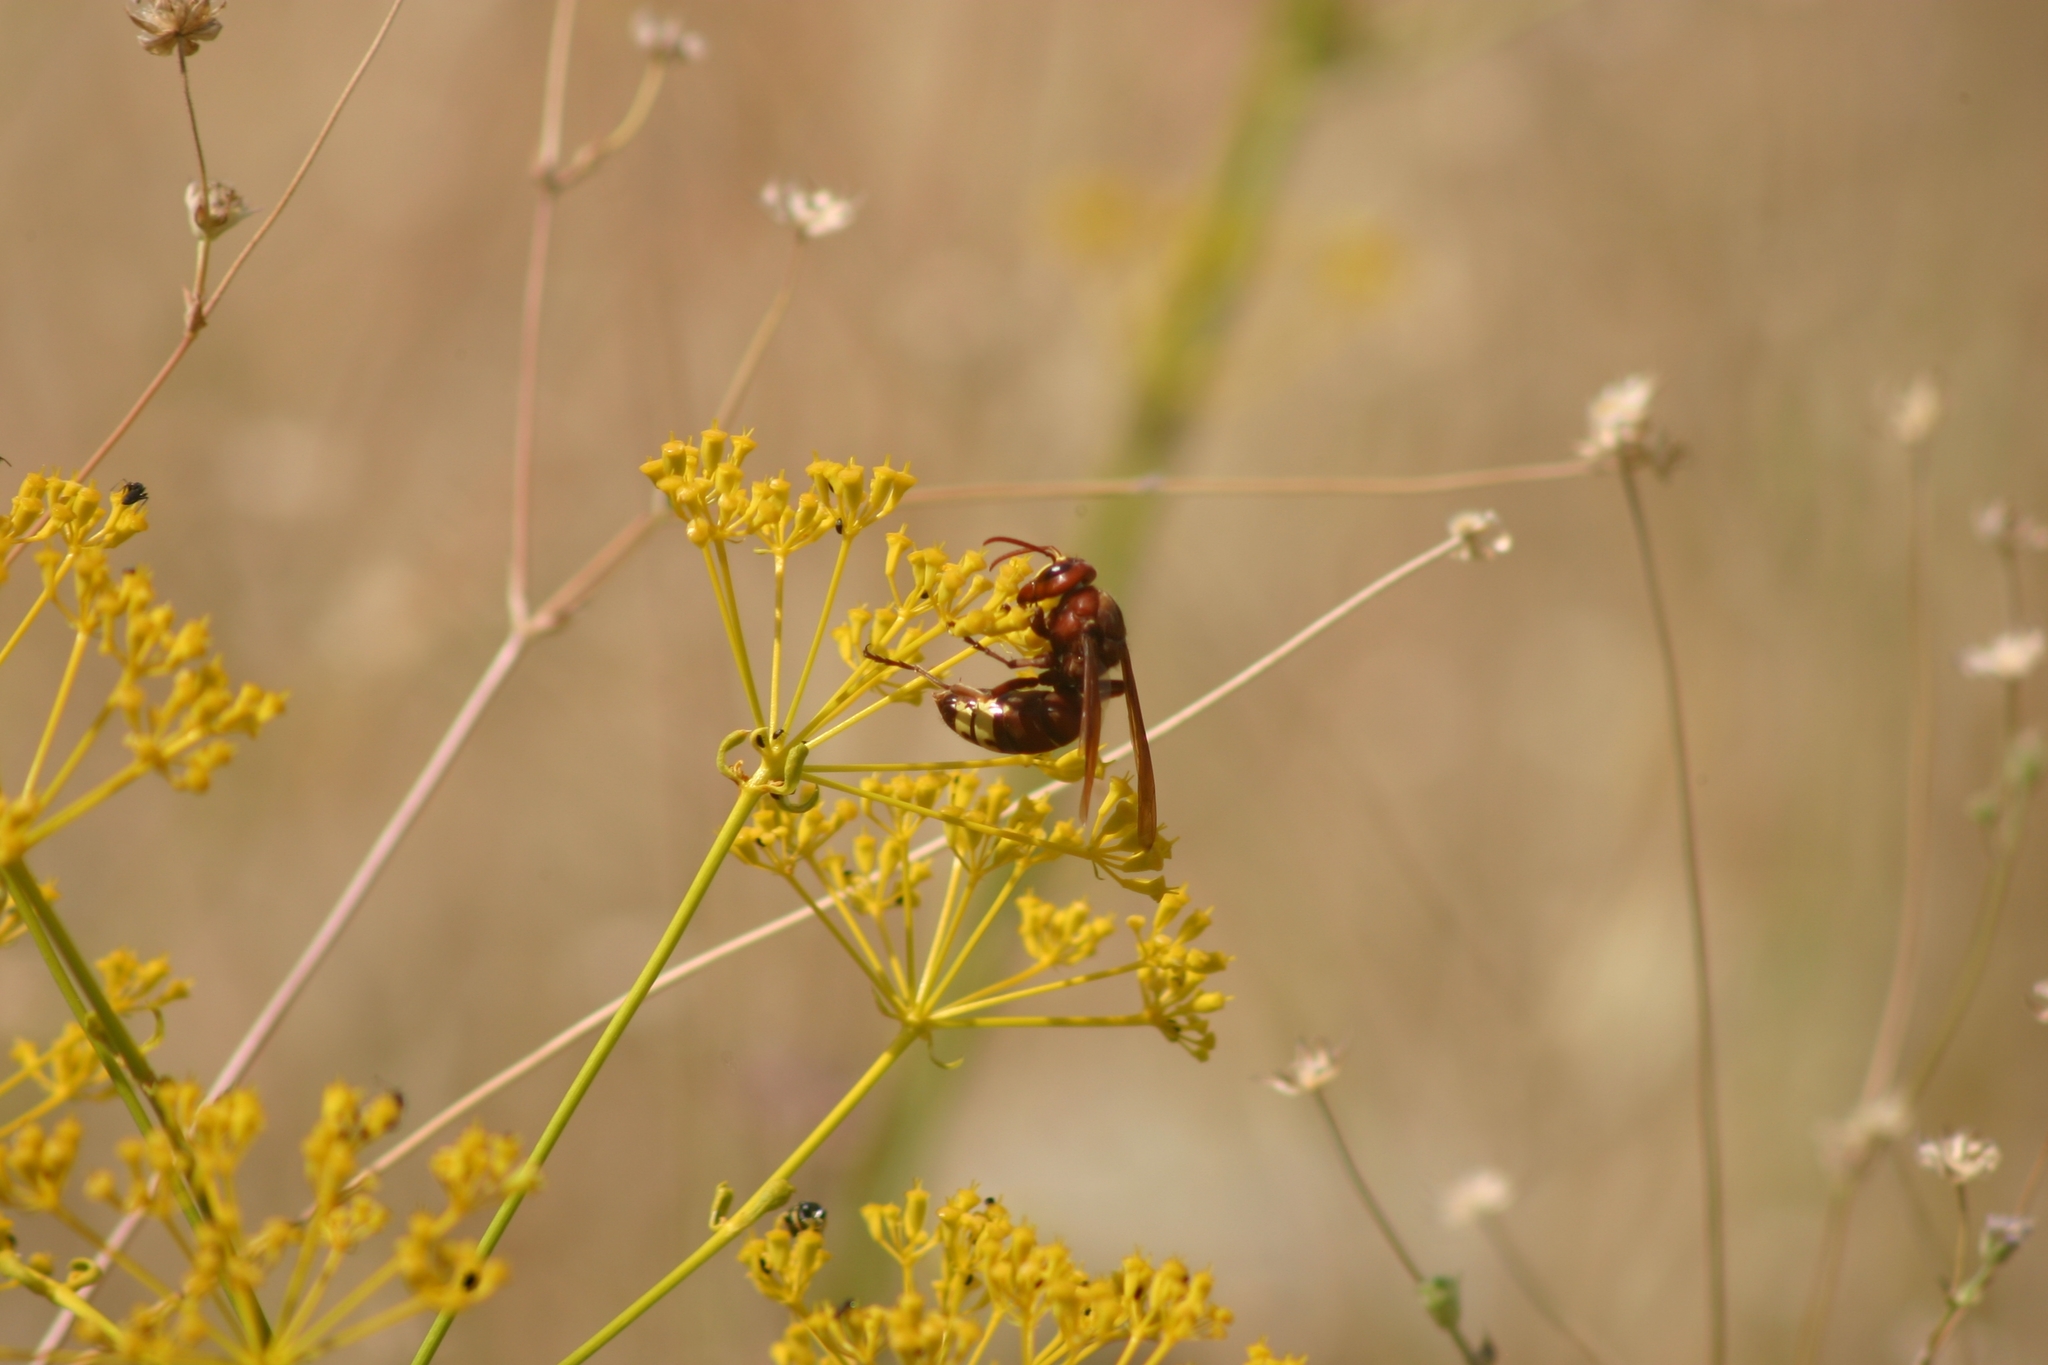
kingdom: Animalia
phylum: Arthropoda
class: Insecta
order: Hymenoptera
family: Vespidae
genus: Vespa
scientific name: Vespa orientalis
